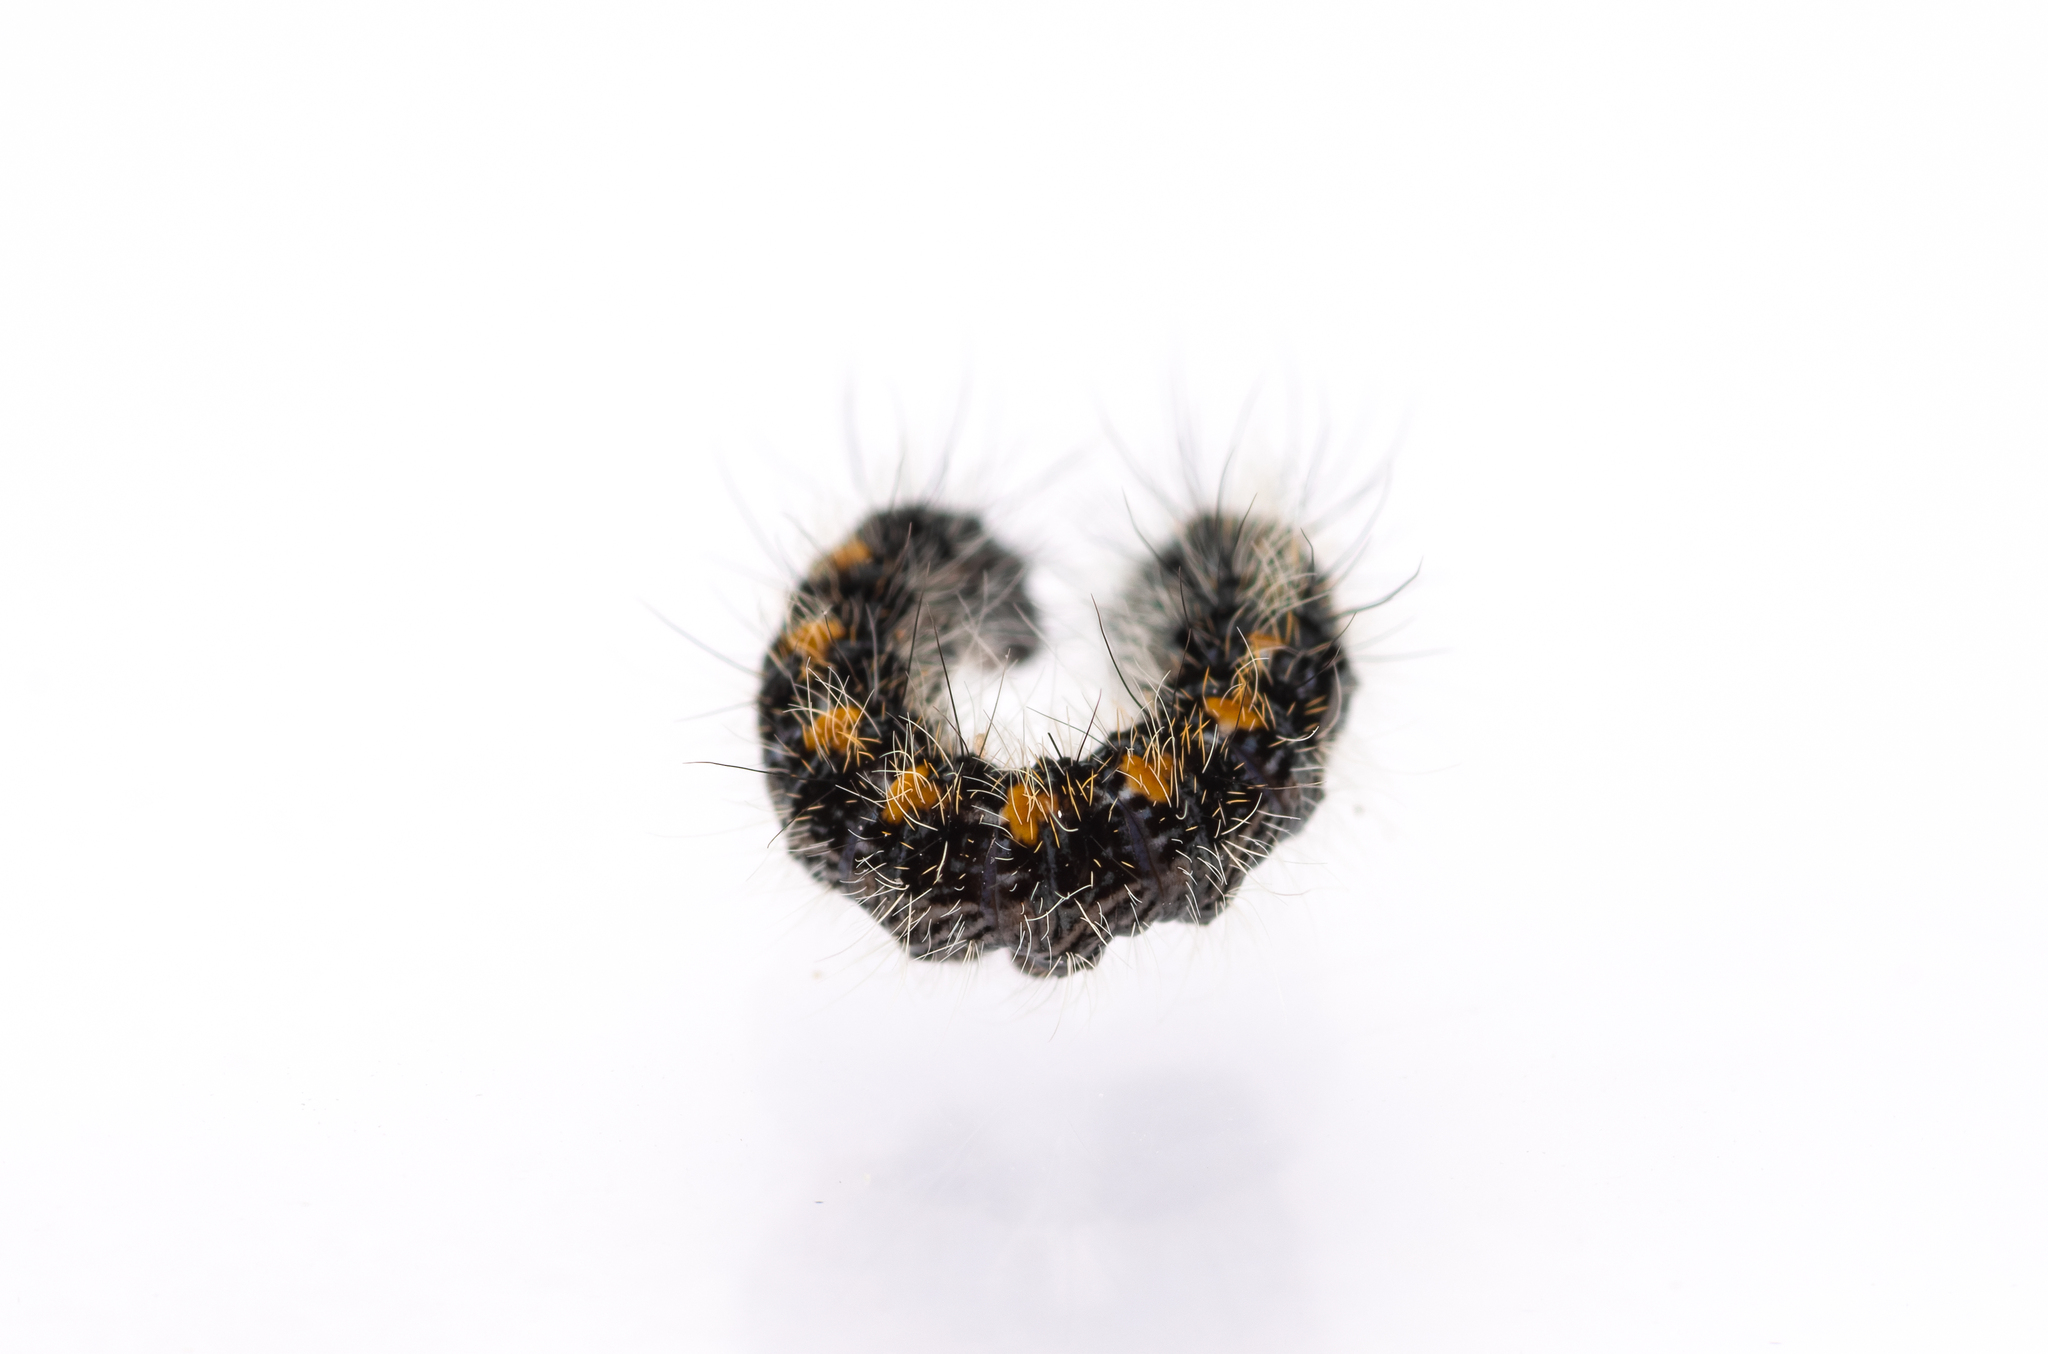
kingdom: Animalia
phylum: Arthropoda
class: Insecta
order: Lepidoptera
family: Lasiocampidae
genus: Lasiocampa
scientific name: Lasiocampa trifolii
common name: Grass eggar
